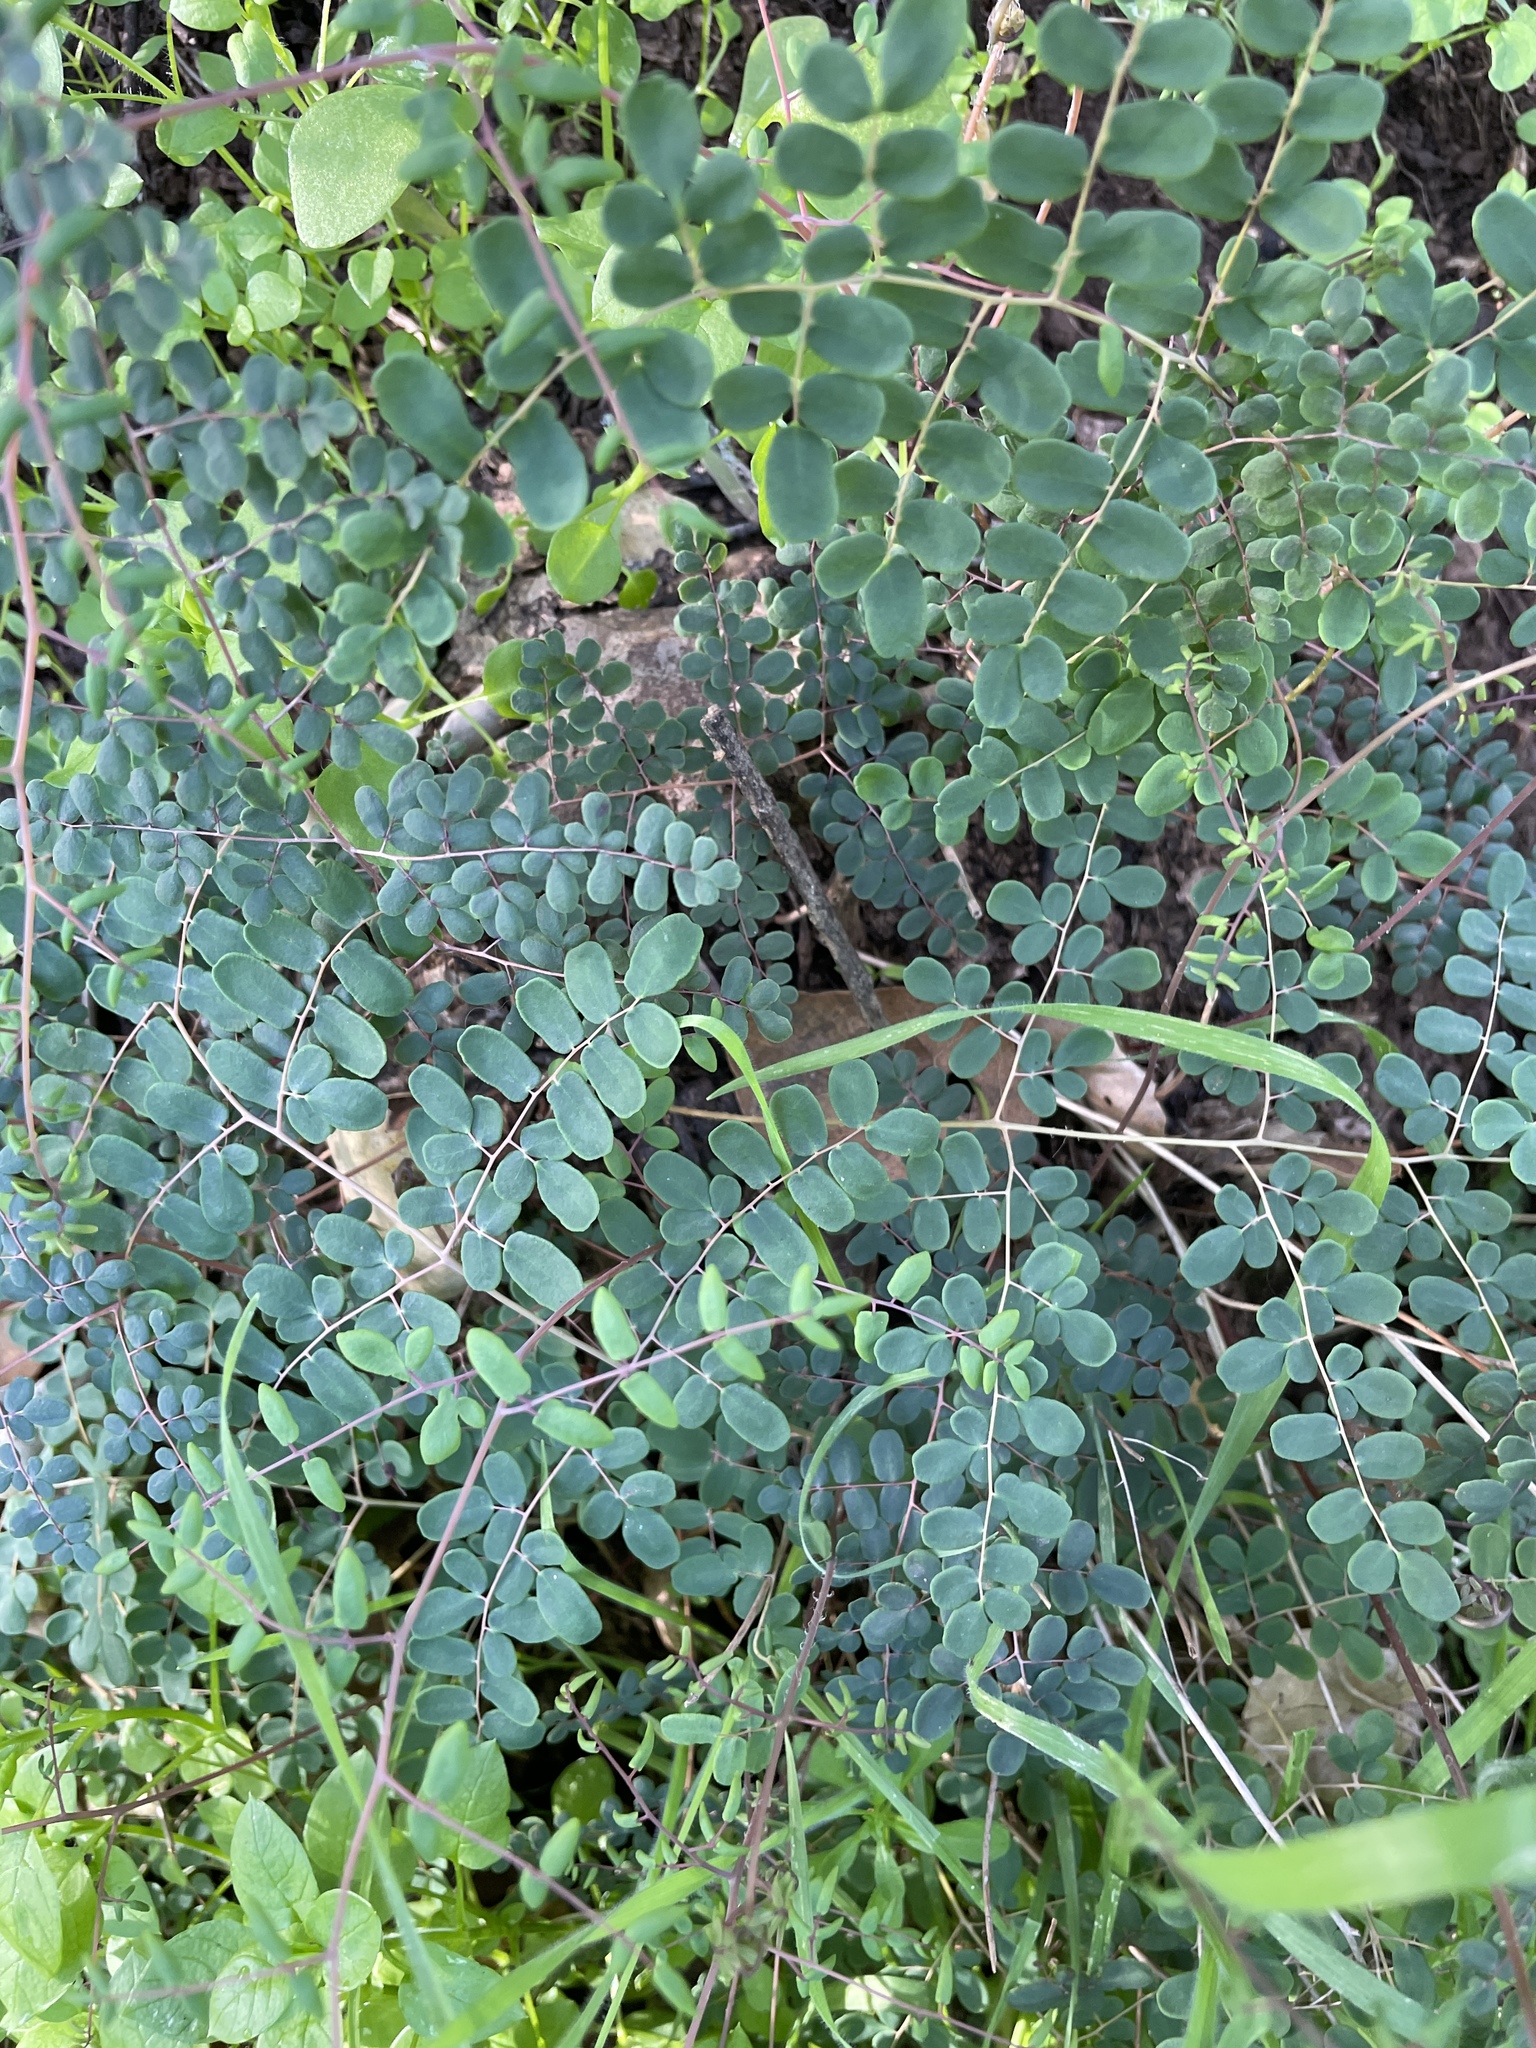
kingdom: Plantae
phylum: Tracheophyta
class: Polypodiopsida
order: Polypodiales
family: Pteridaceae
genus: Pellaea
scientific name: Pellaea andromedifolia
